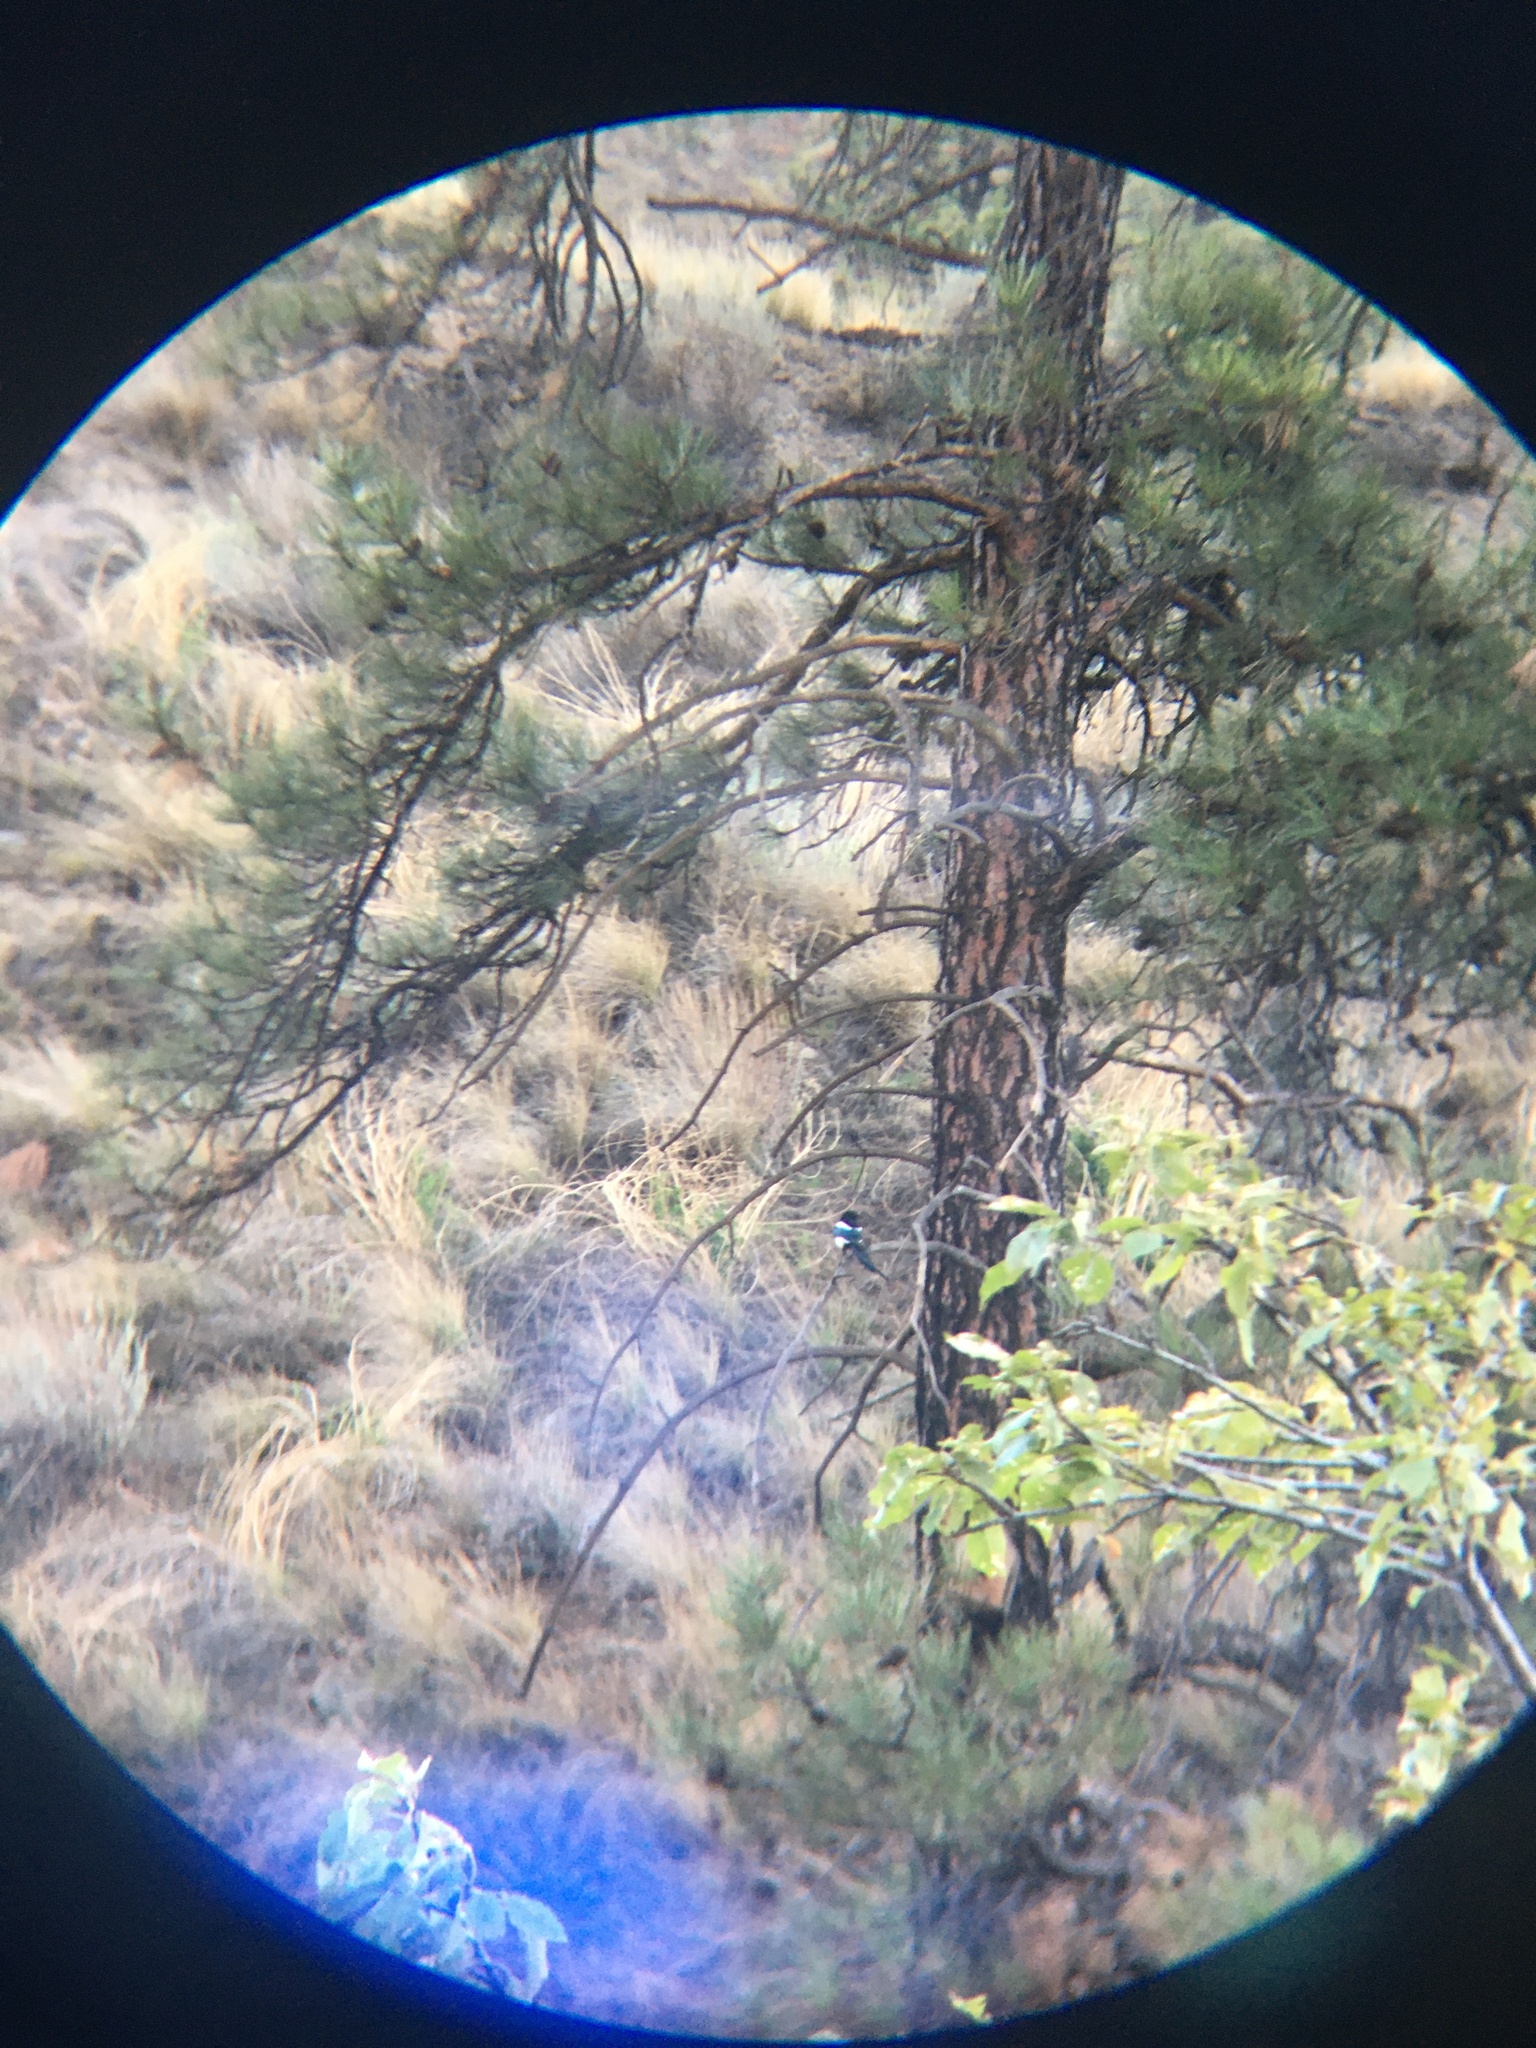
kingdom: Animalia
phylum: Chordata
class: Aves
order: Passeriformes
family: Corvidae
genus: Pica
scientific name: Pica hudsonia
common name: Black-billed magpie
